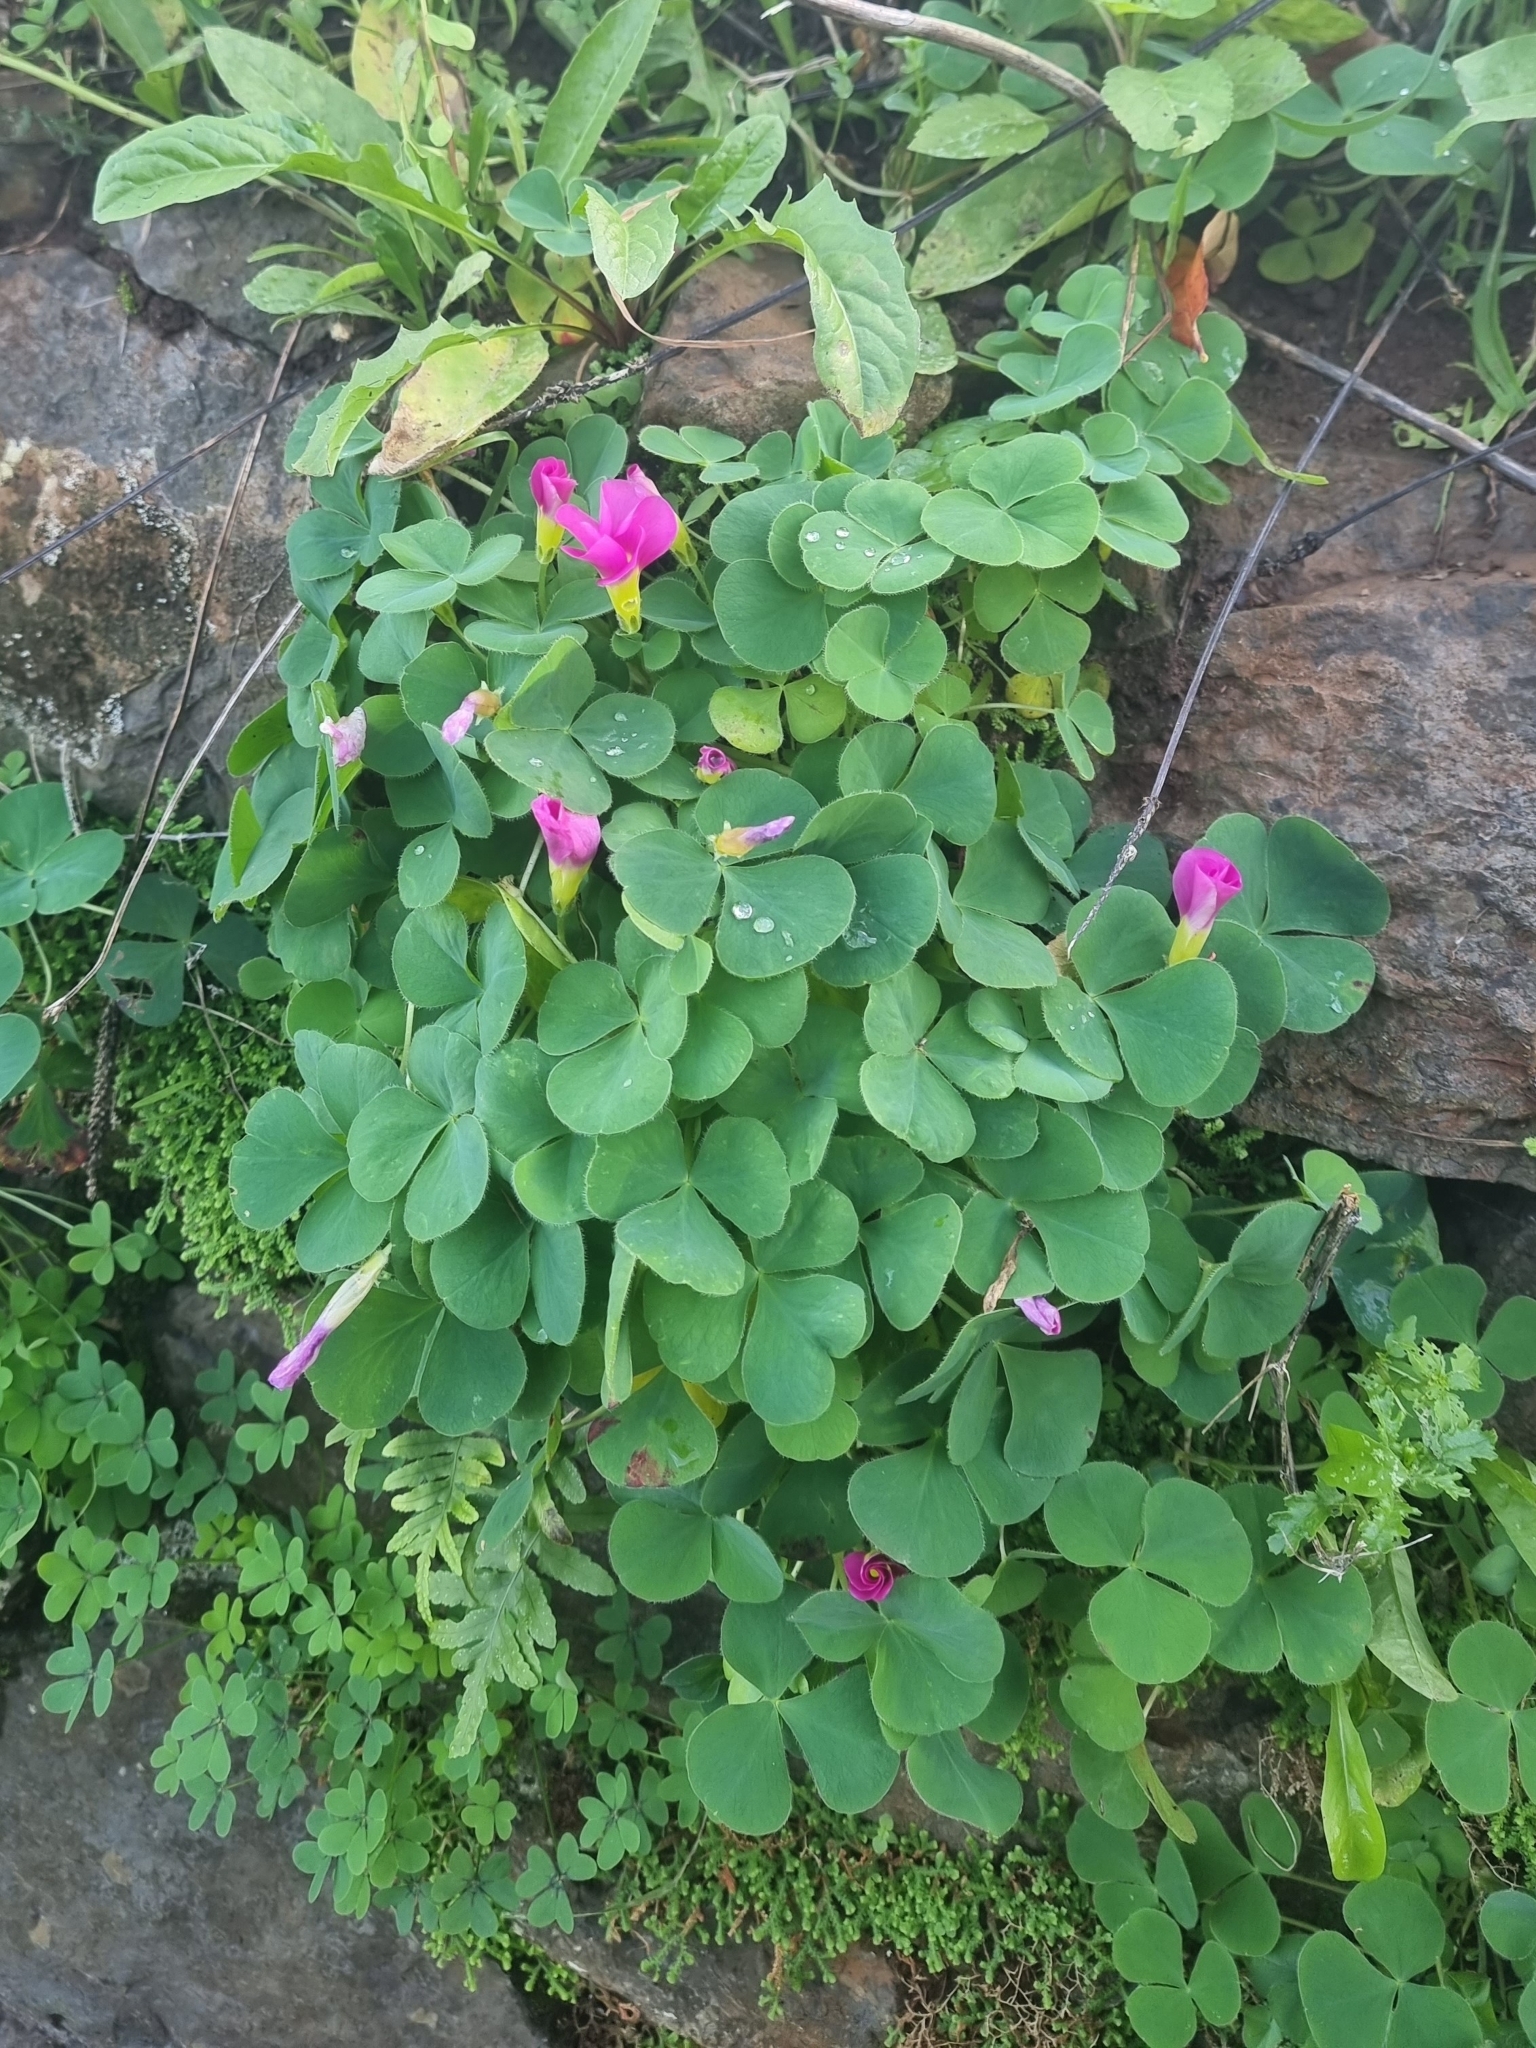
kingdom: Plantae
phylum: Tracheophyta
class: Magnoliopsida
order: Oxalidales
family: Oxalidaceae
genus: Oxalis
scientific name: Oxalis purpurea
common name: Purple woodsorrel
